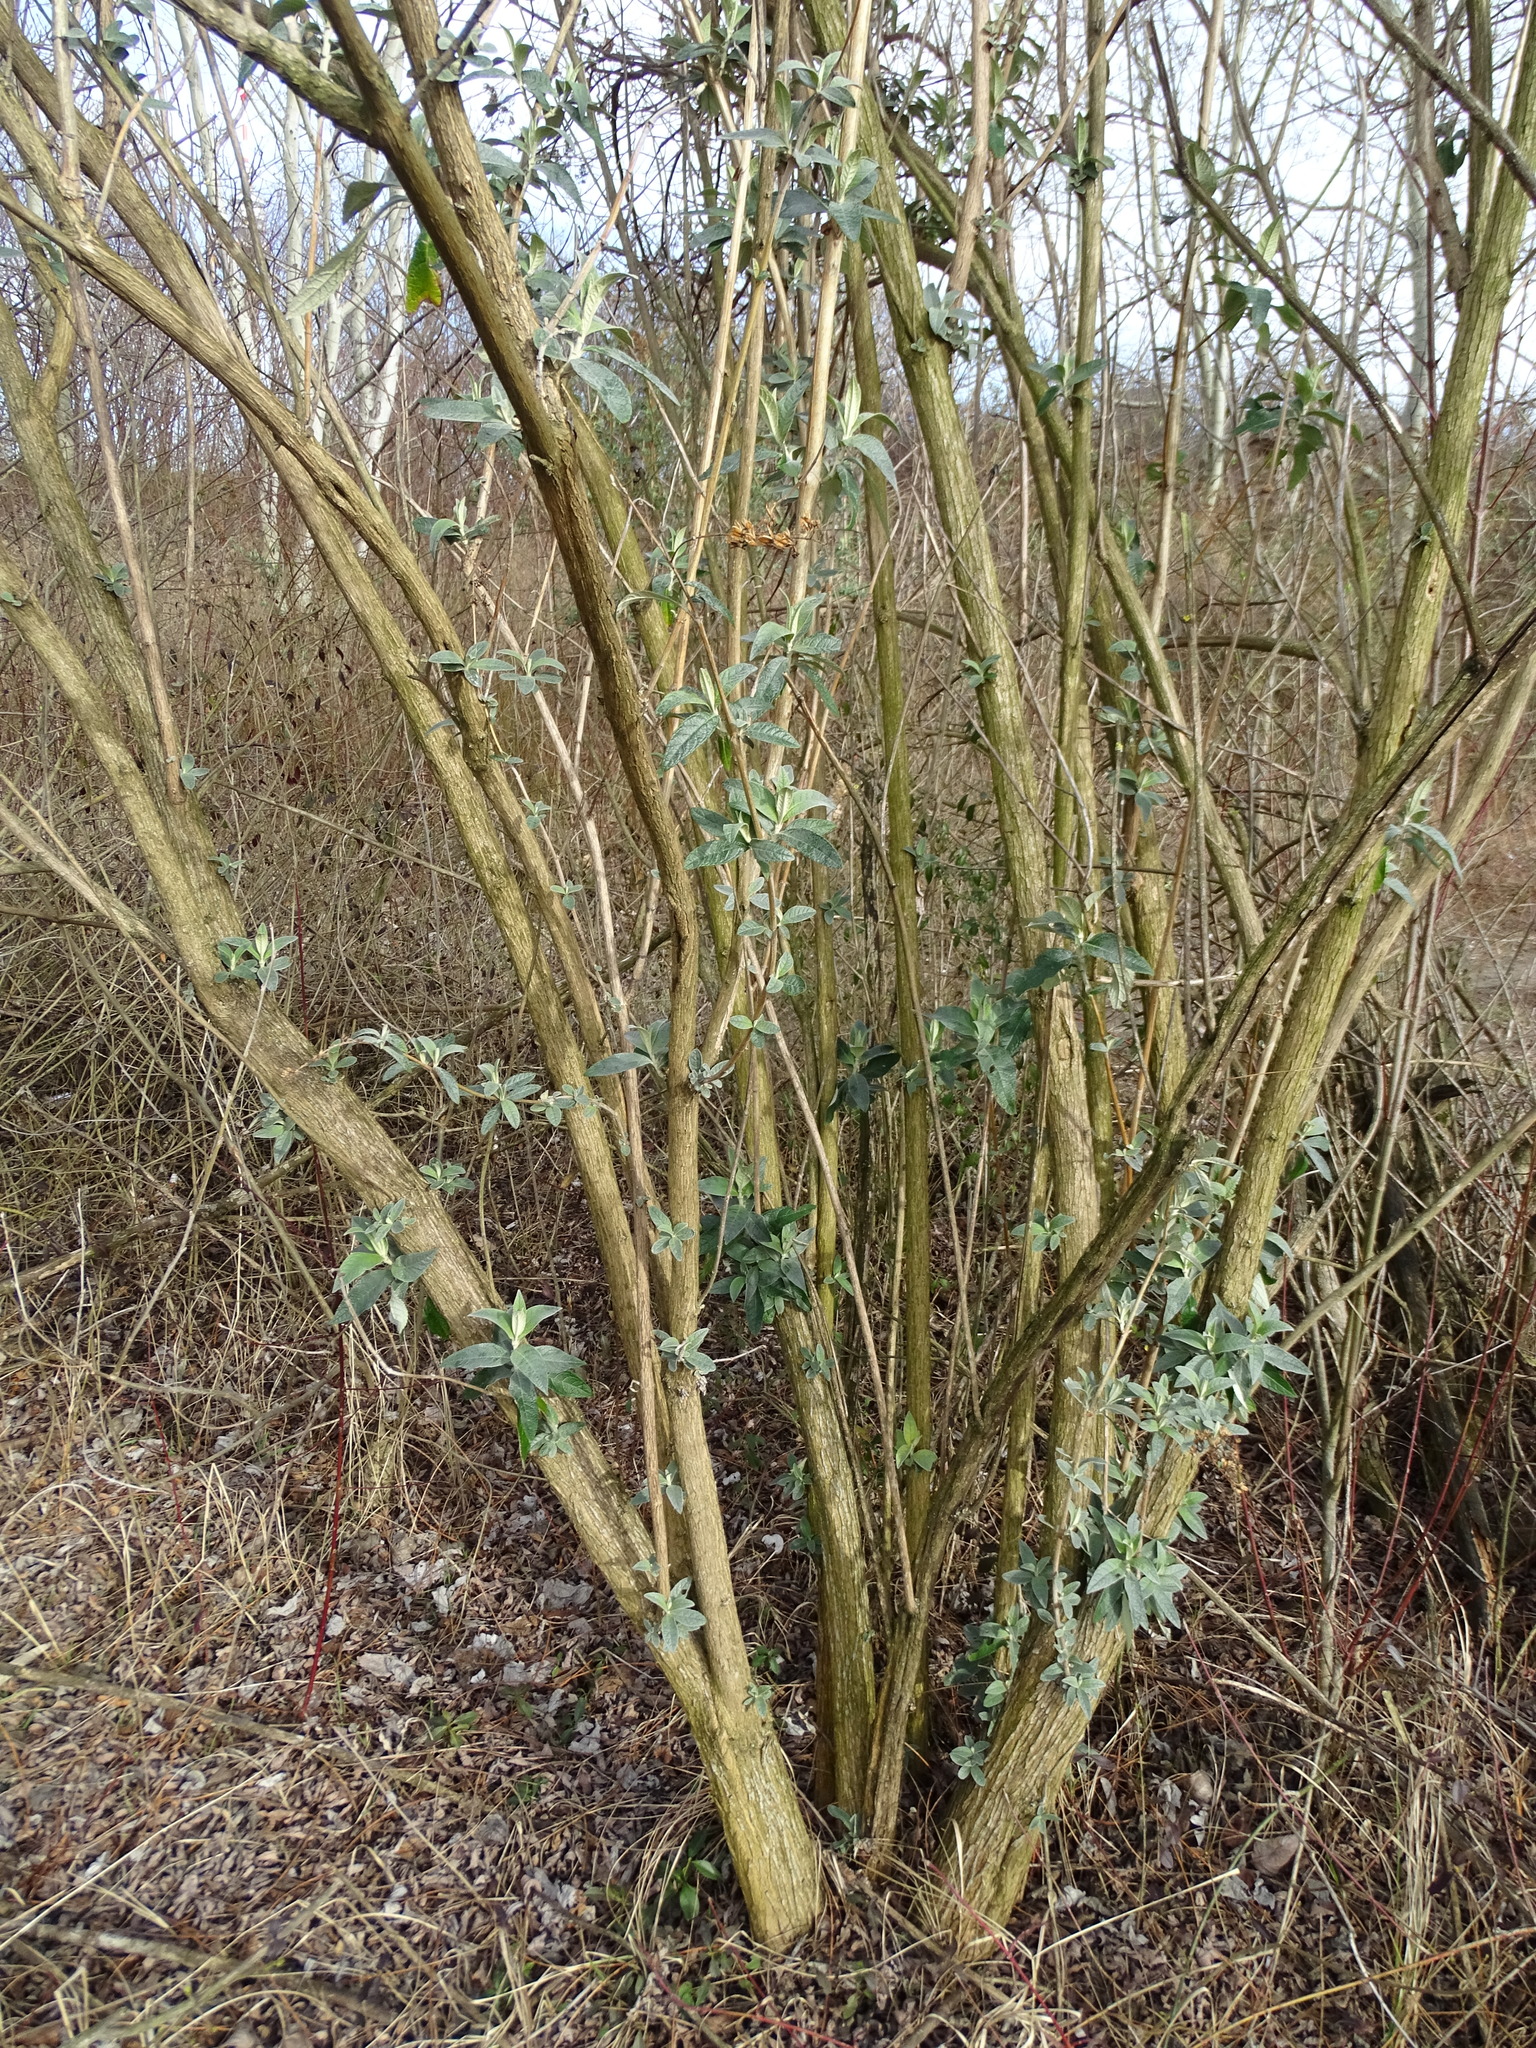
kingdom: Plantae
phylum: Tracheophyta
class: Magnoliopsida
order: Lamiales
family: Scrophulariaceae
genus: Buddleja
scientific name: Buddleja davidii
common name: Butterfly-bush
